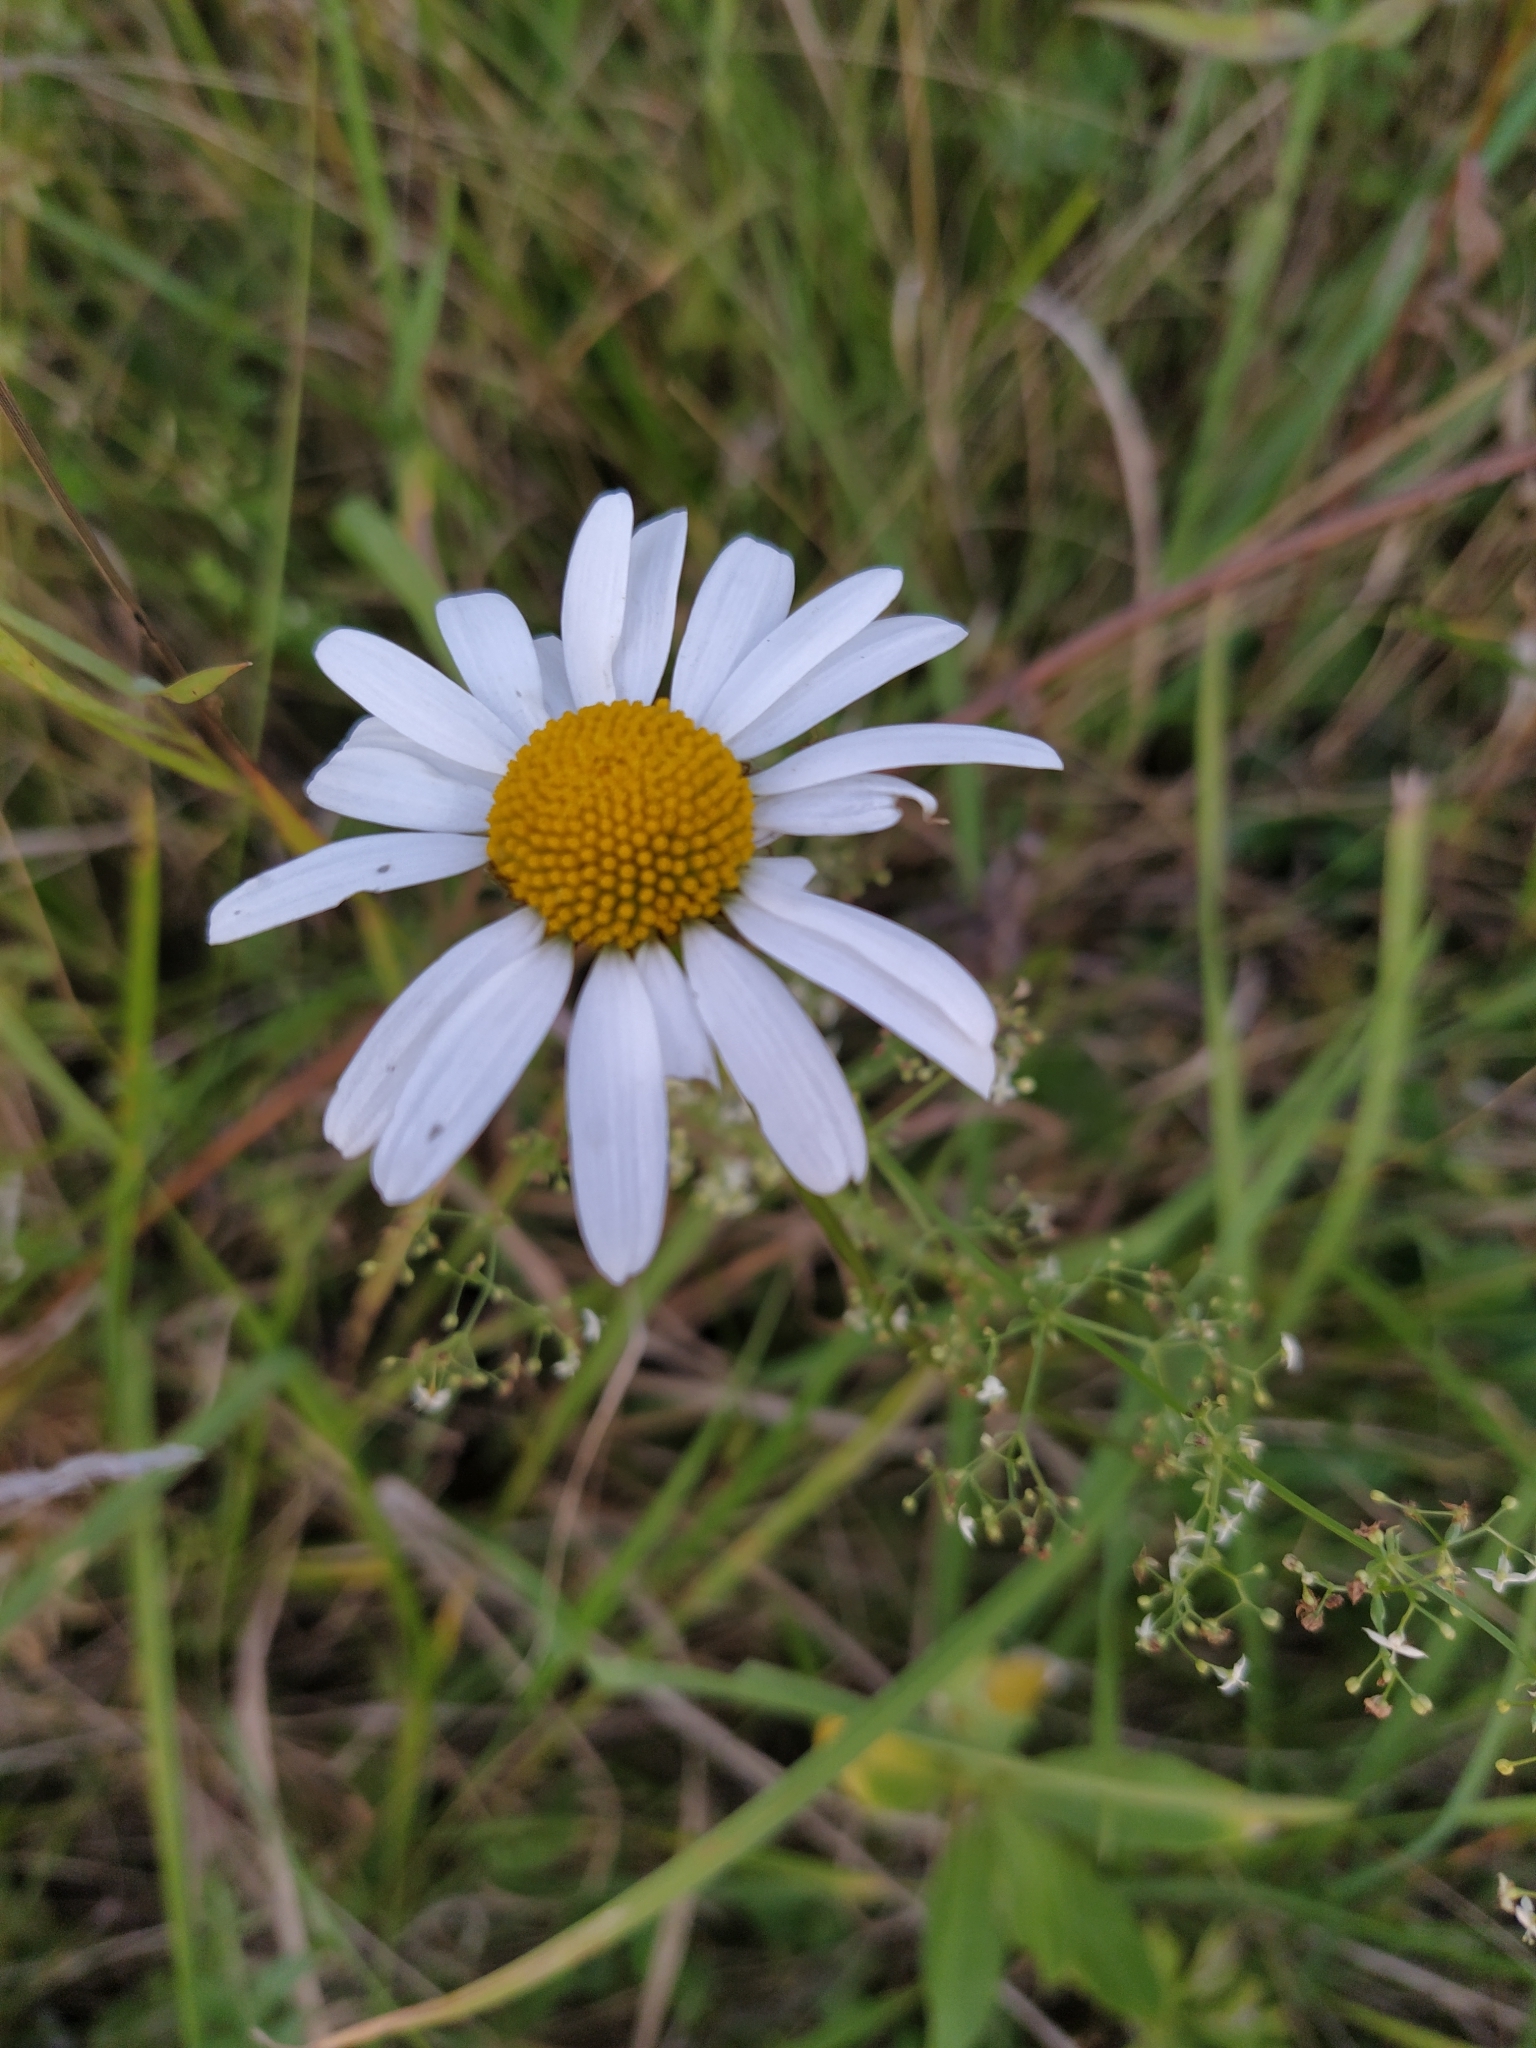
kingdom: Plantae
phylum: Tracheophyta
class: Magnoliopsida
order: Asterales
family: Asteraceae
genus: Leucanthemum
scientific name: Leucanthemum vulgare
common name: Oxeye daisy
